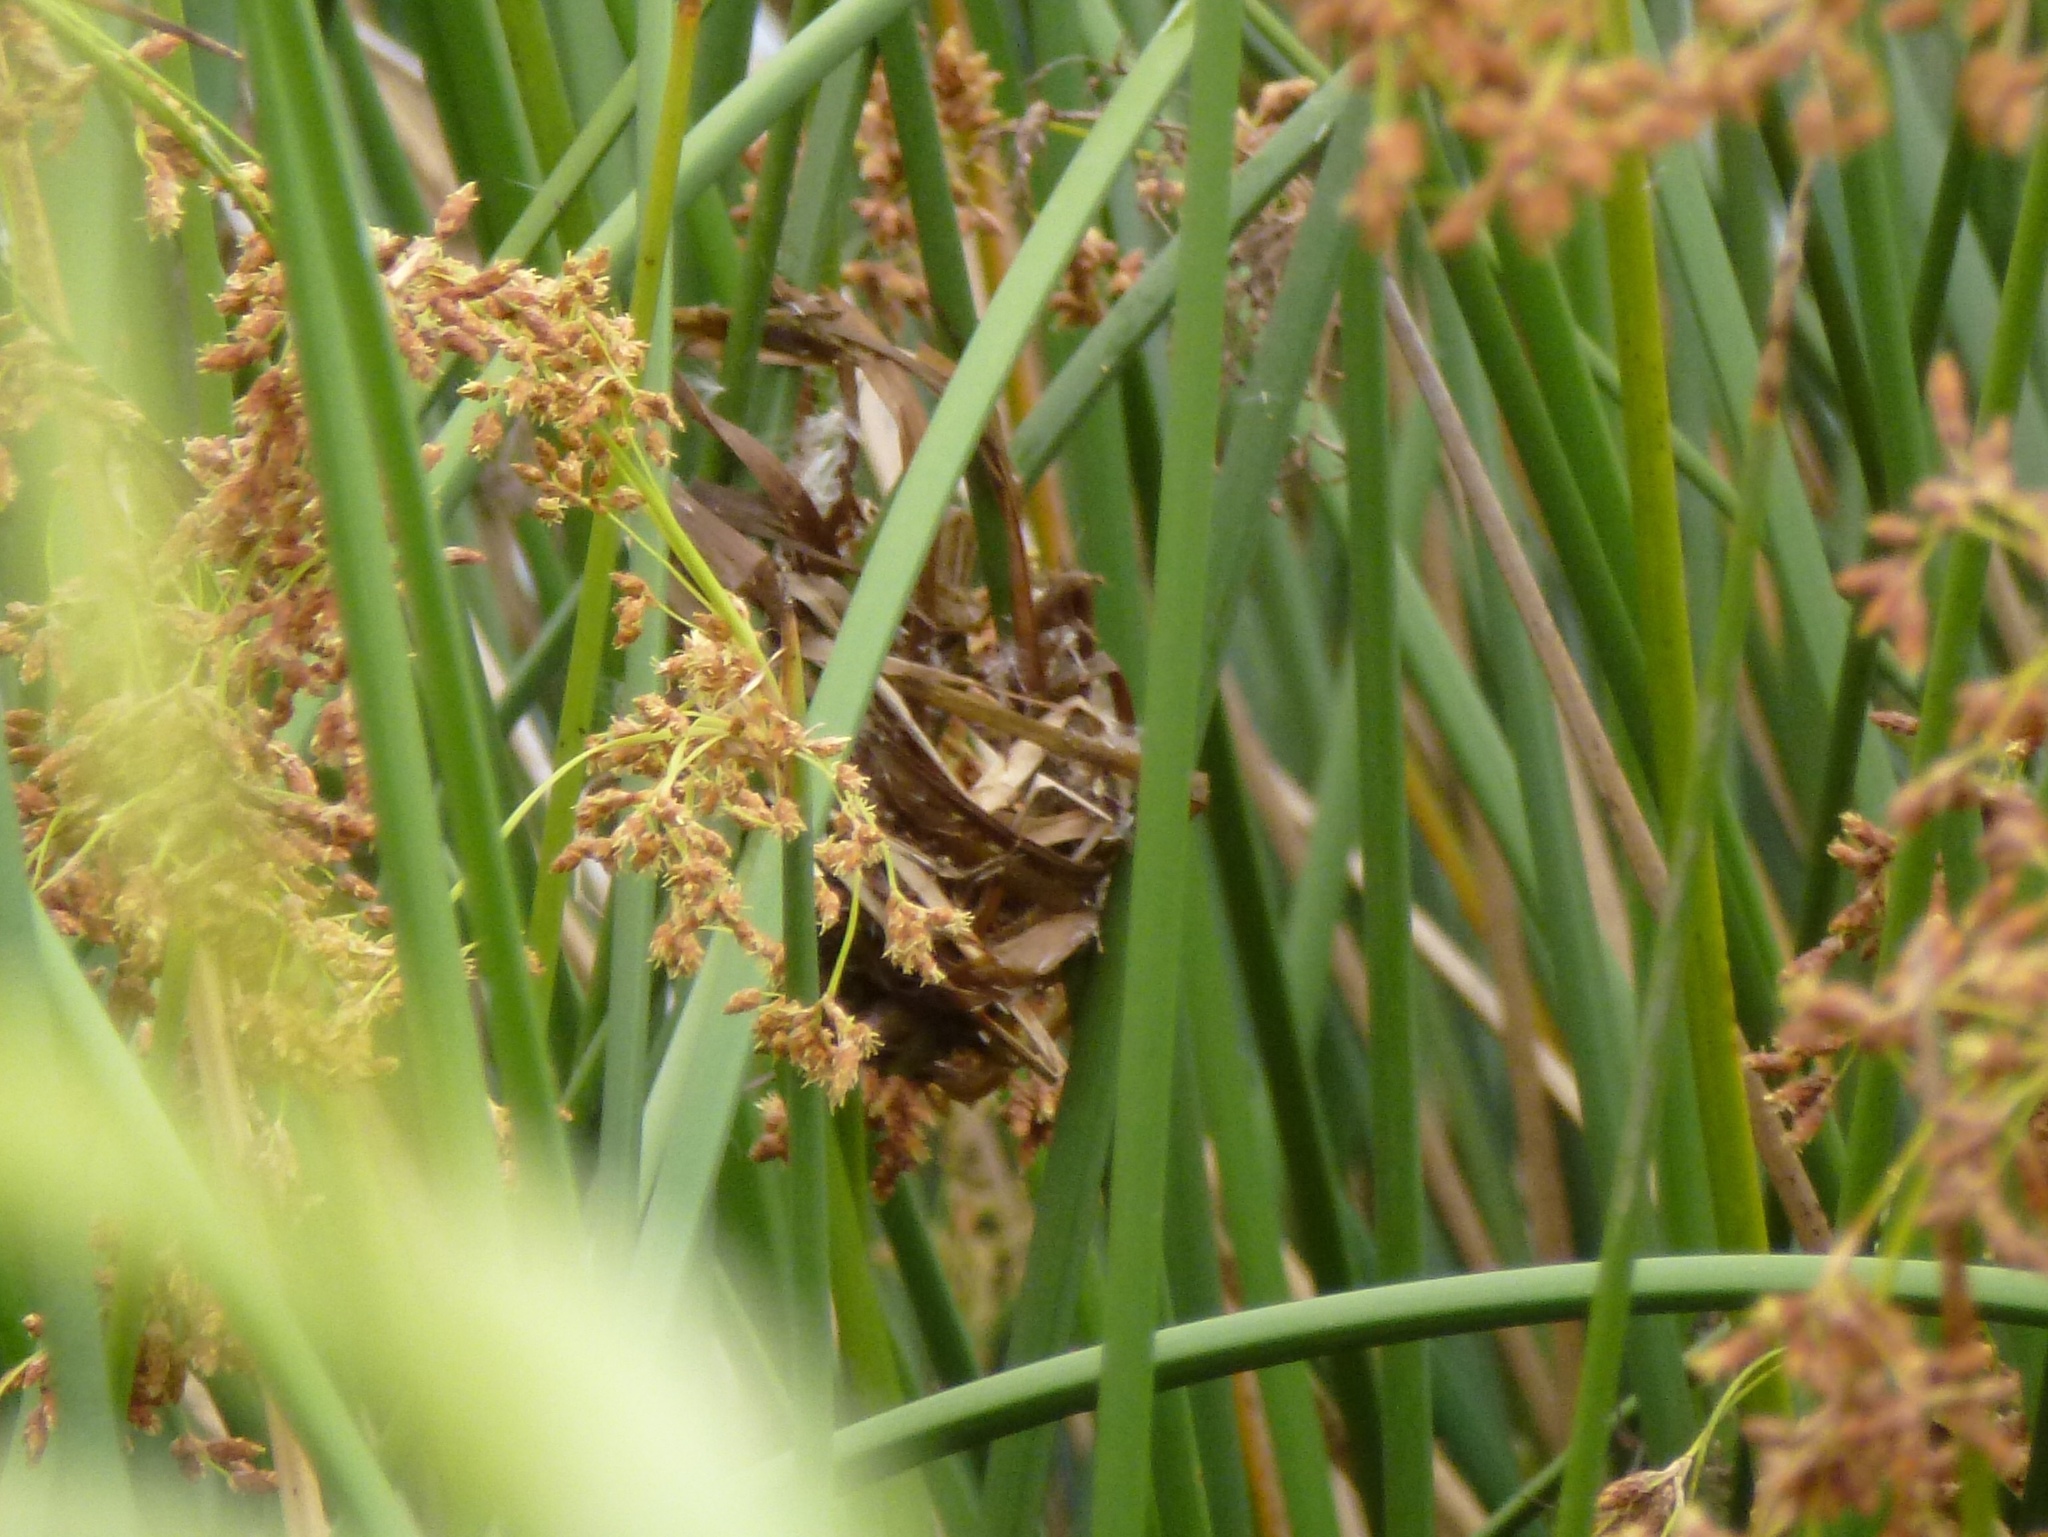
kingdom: Animalia
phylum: Chordata
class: Aves
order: Passeriformes
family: Troglodytidae
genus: Cistothorus
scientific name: Cistothorus palustris
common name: Marsh wren
